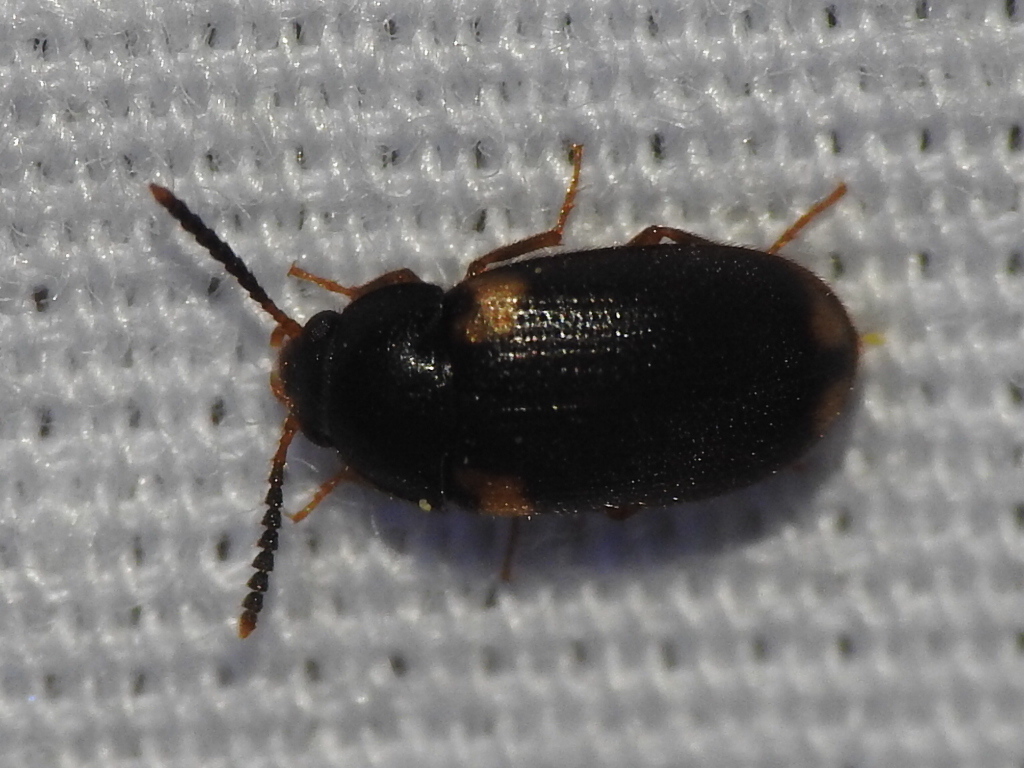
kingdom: Animalia
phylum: Arthropoda
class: Insecta
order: Coleoptera
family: Mycetophagidae
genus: Mycetophagus
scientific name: Mycetophagus serrulatus
